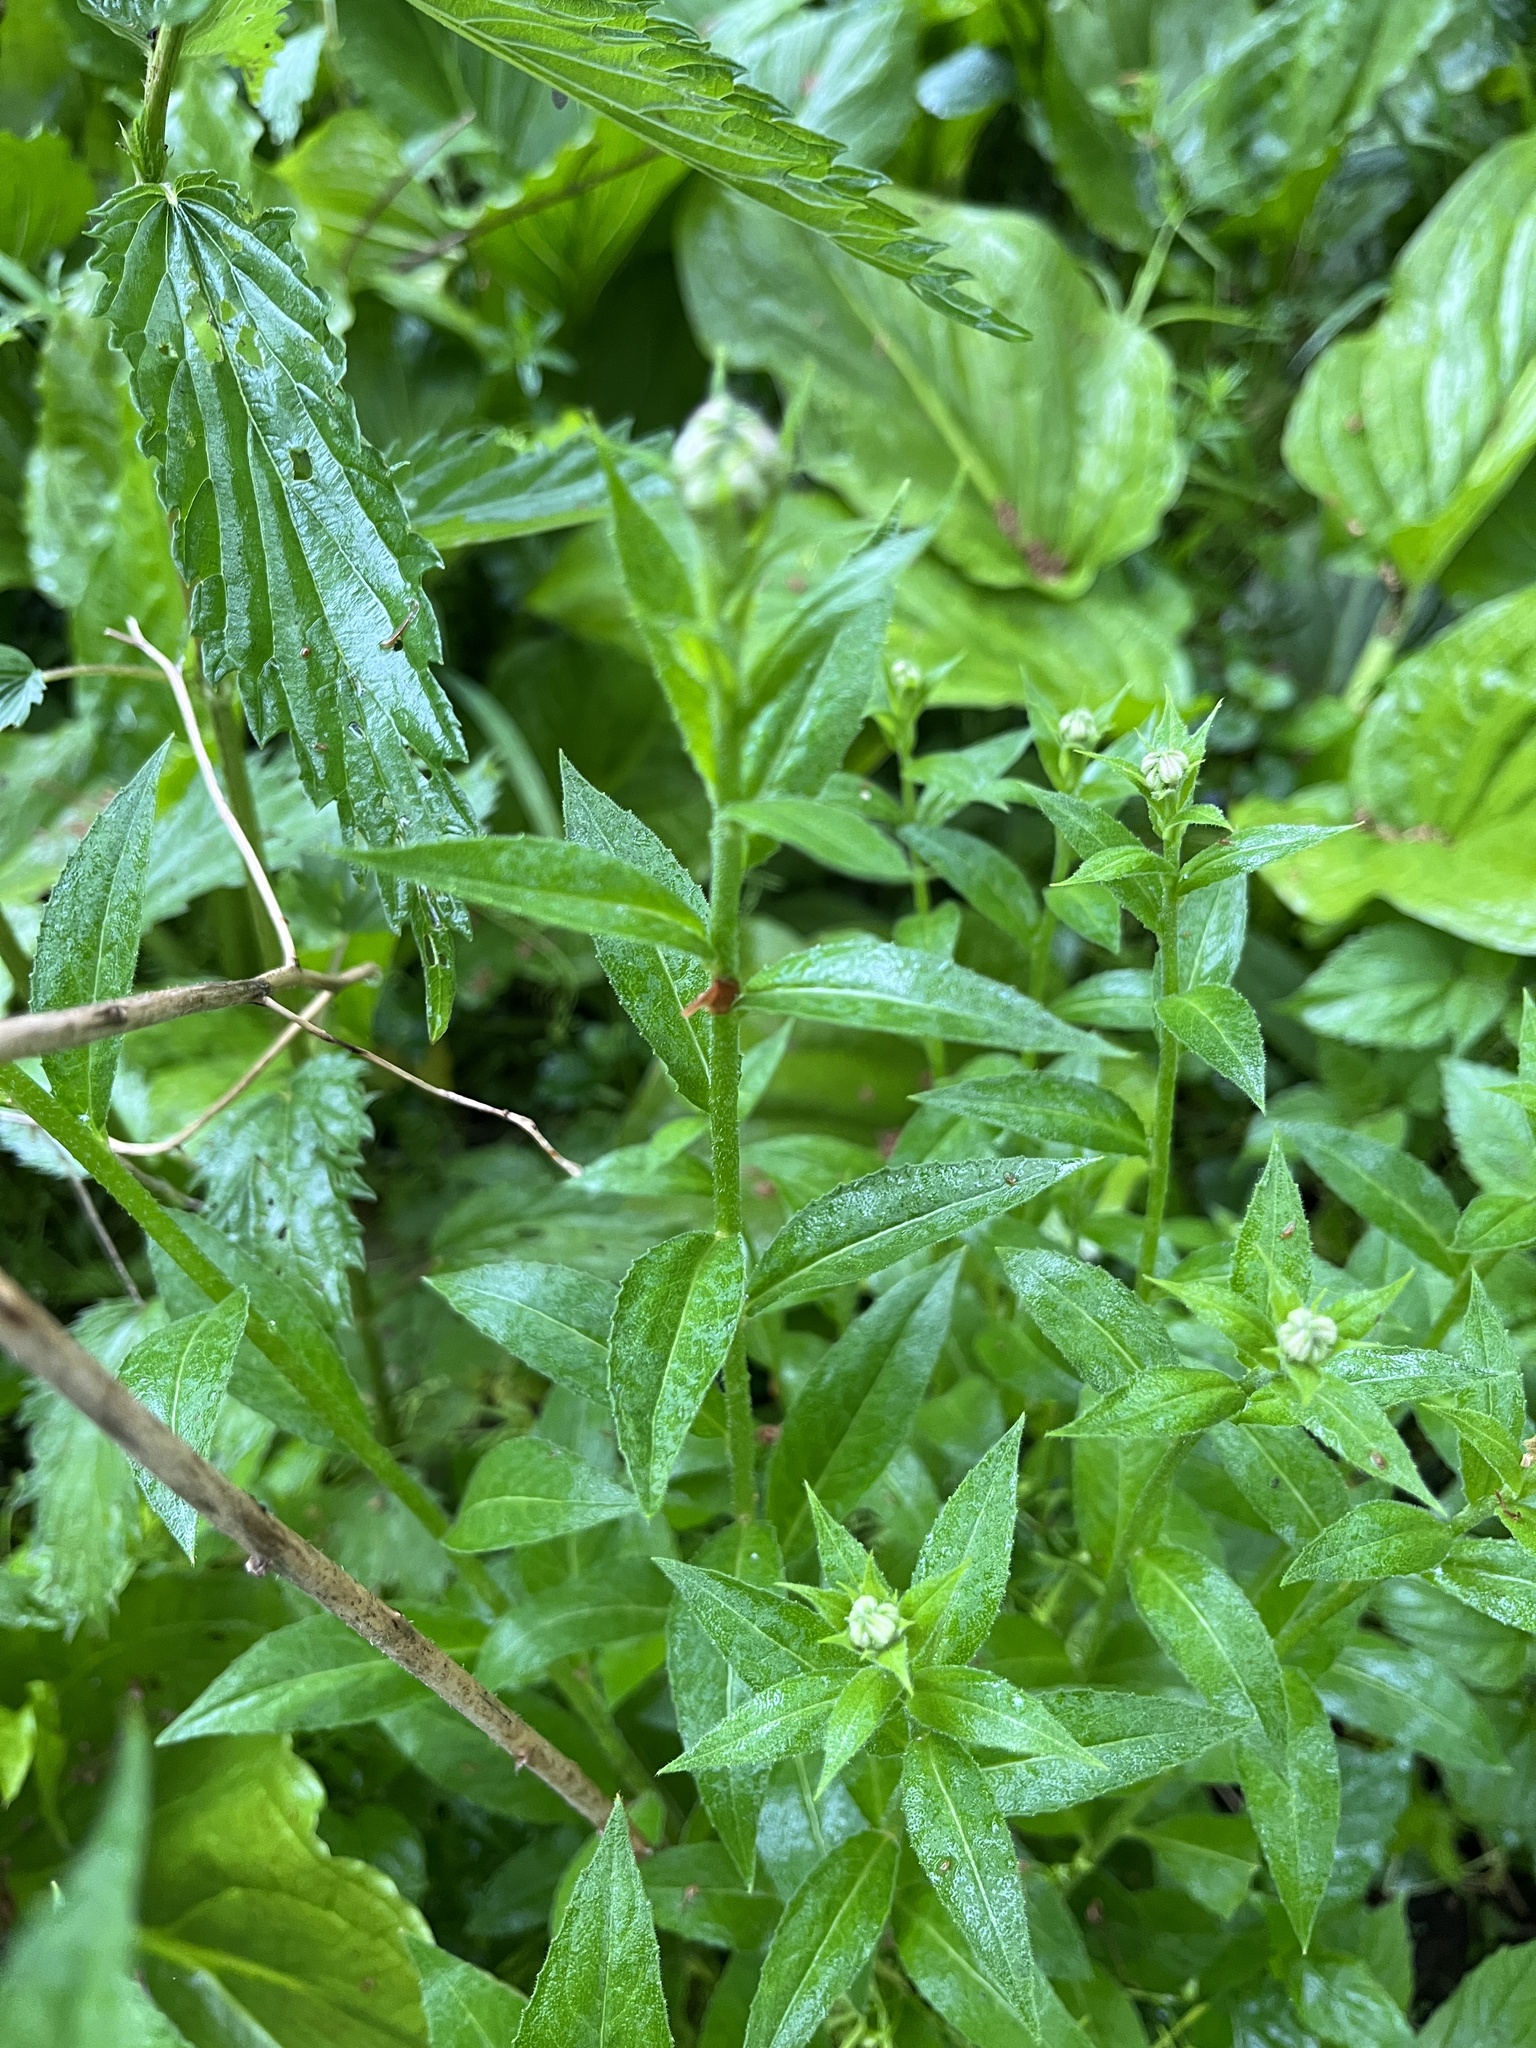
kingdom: Plantae
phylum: Tracheophyta
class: Magnoliopsida
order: Brassicales
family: Brassicaceae
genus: Hesperis
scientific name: Hesperis matronalis
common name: Dame's-violet
